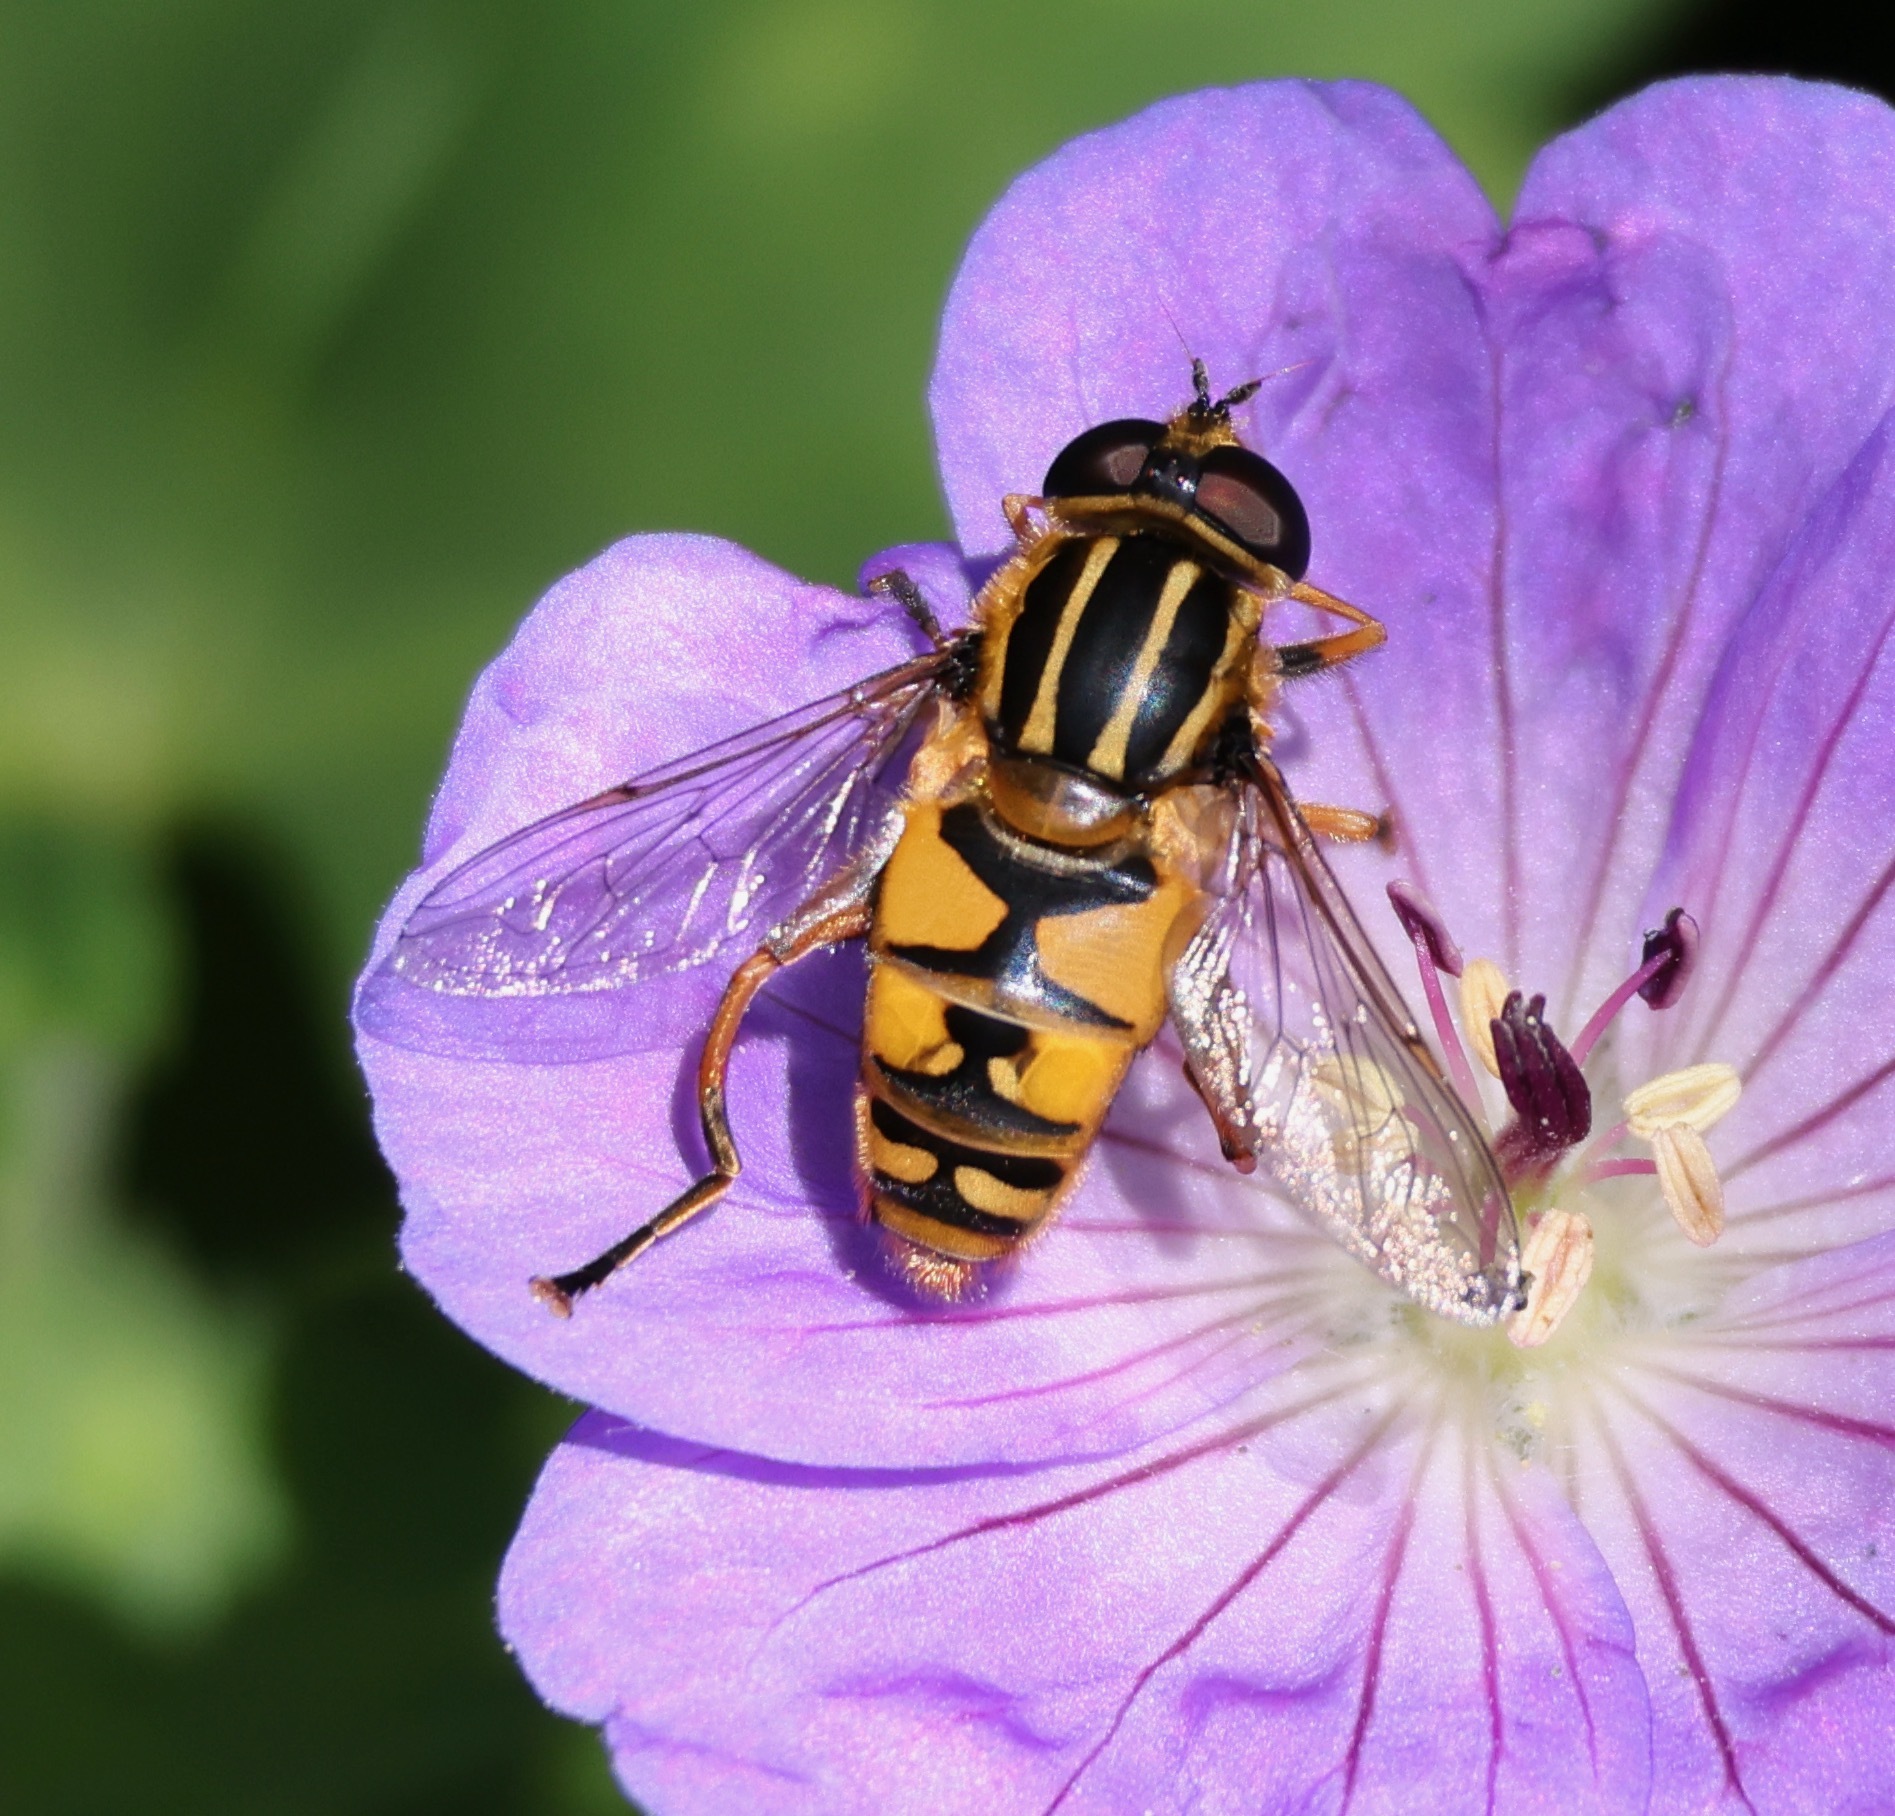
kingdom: Animalia
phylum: Arthropoda
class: Insecta
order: Diptera
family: Syrphidae
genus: Helophilus
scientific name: Helophilus pendulus
